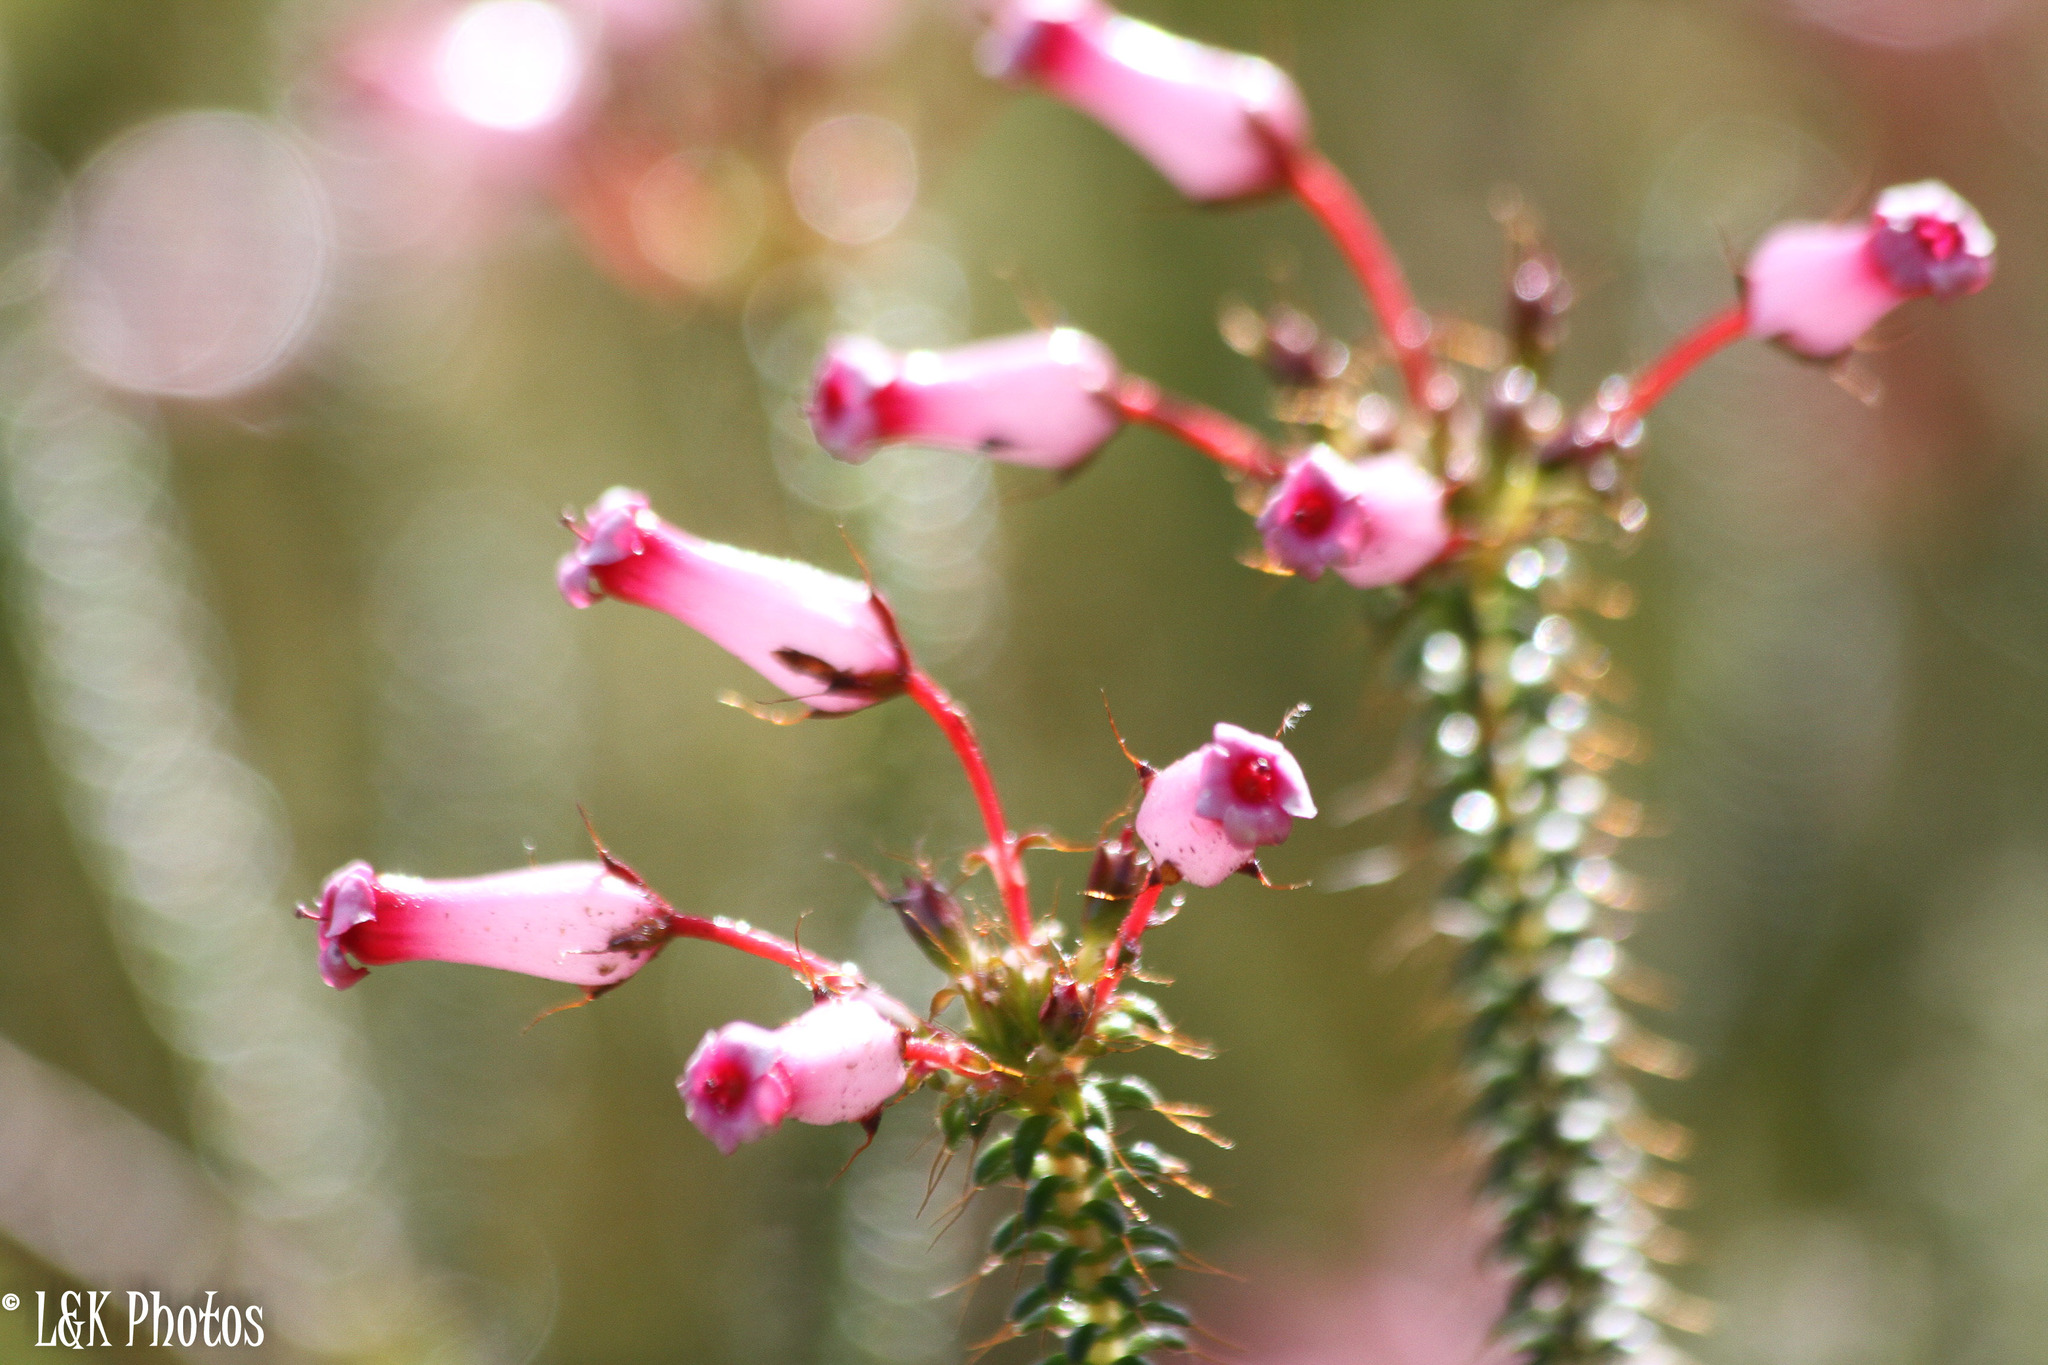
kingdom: Plantae
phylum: Tracheophyta
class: Magnoliopsida
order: Ericales
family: Ericaceae
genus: Erica
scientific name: Erica retorta
